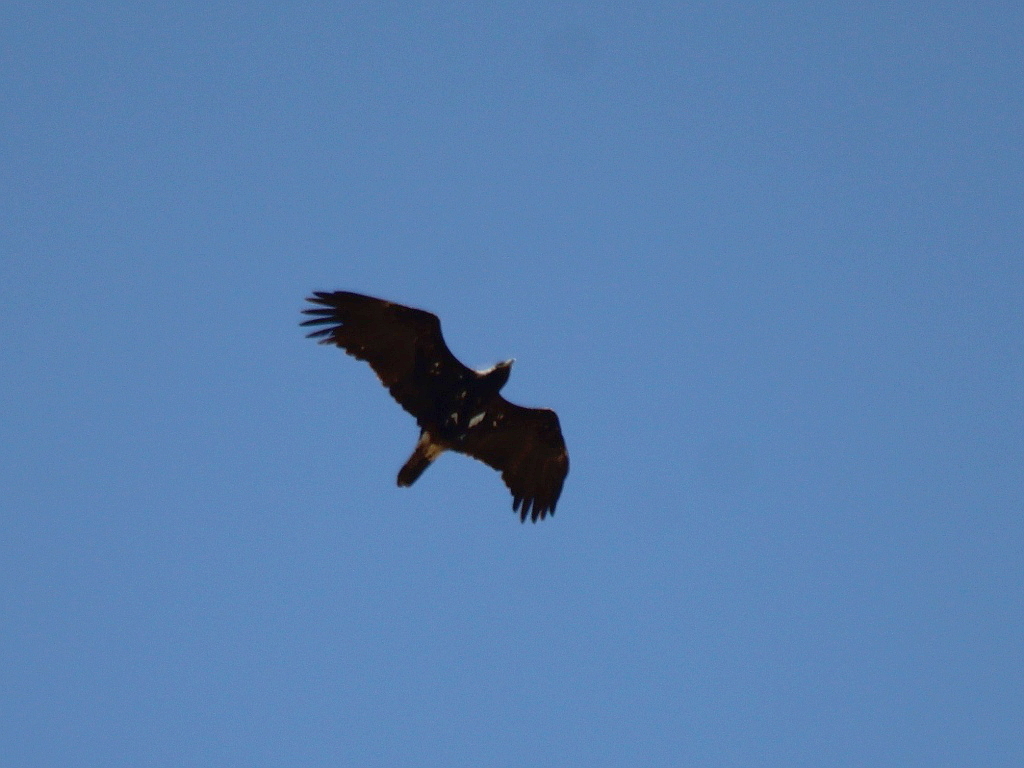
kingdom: Animalia
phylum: Chordata
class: Aves
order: Accipitriformes
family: Accipitridae
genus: Aquila
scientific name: Aquila heliaca
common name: Eastern imperial eagle
